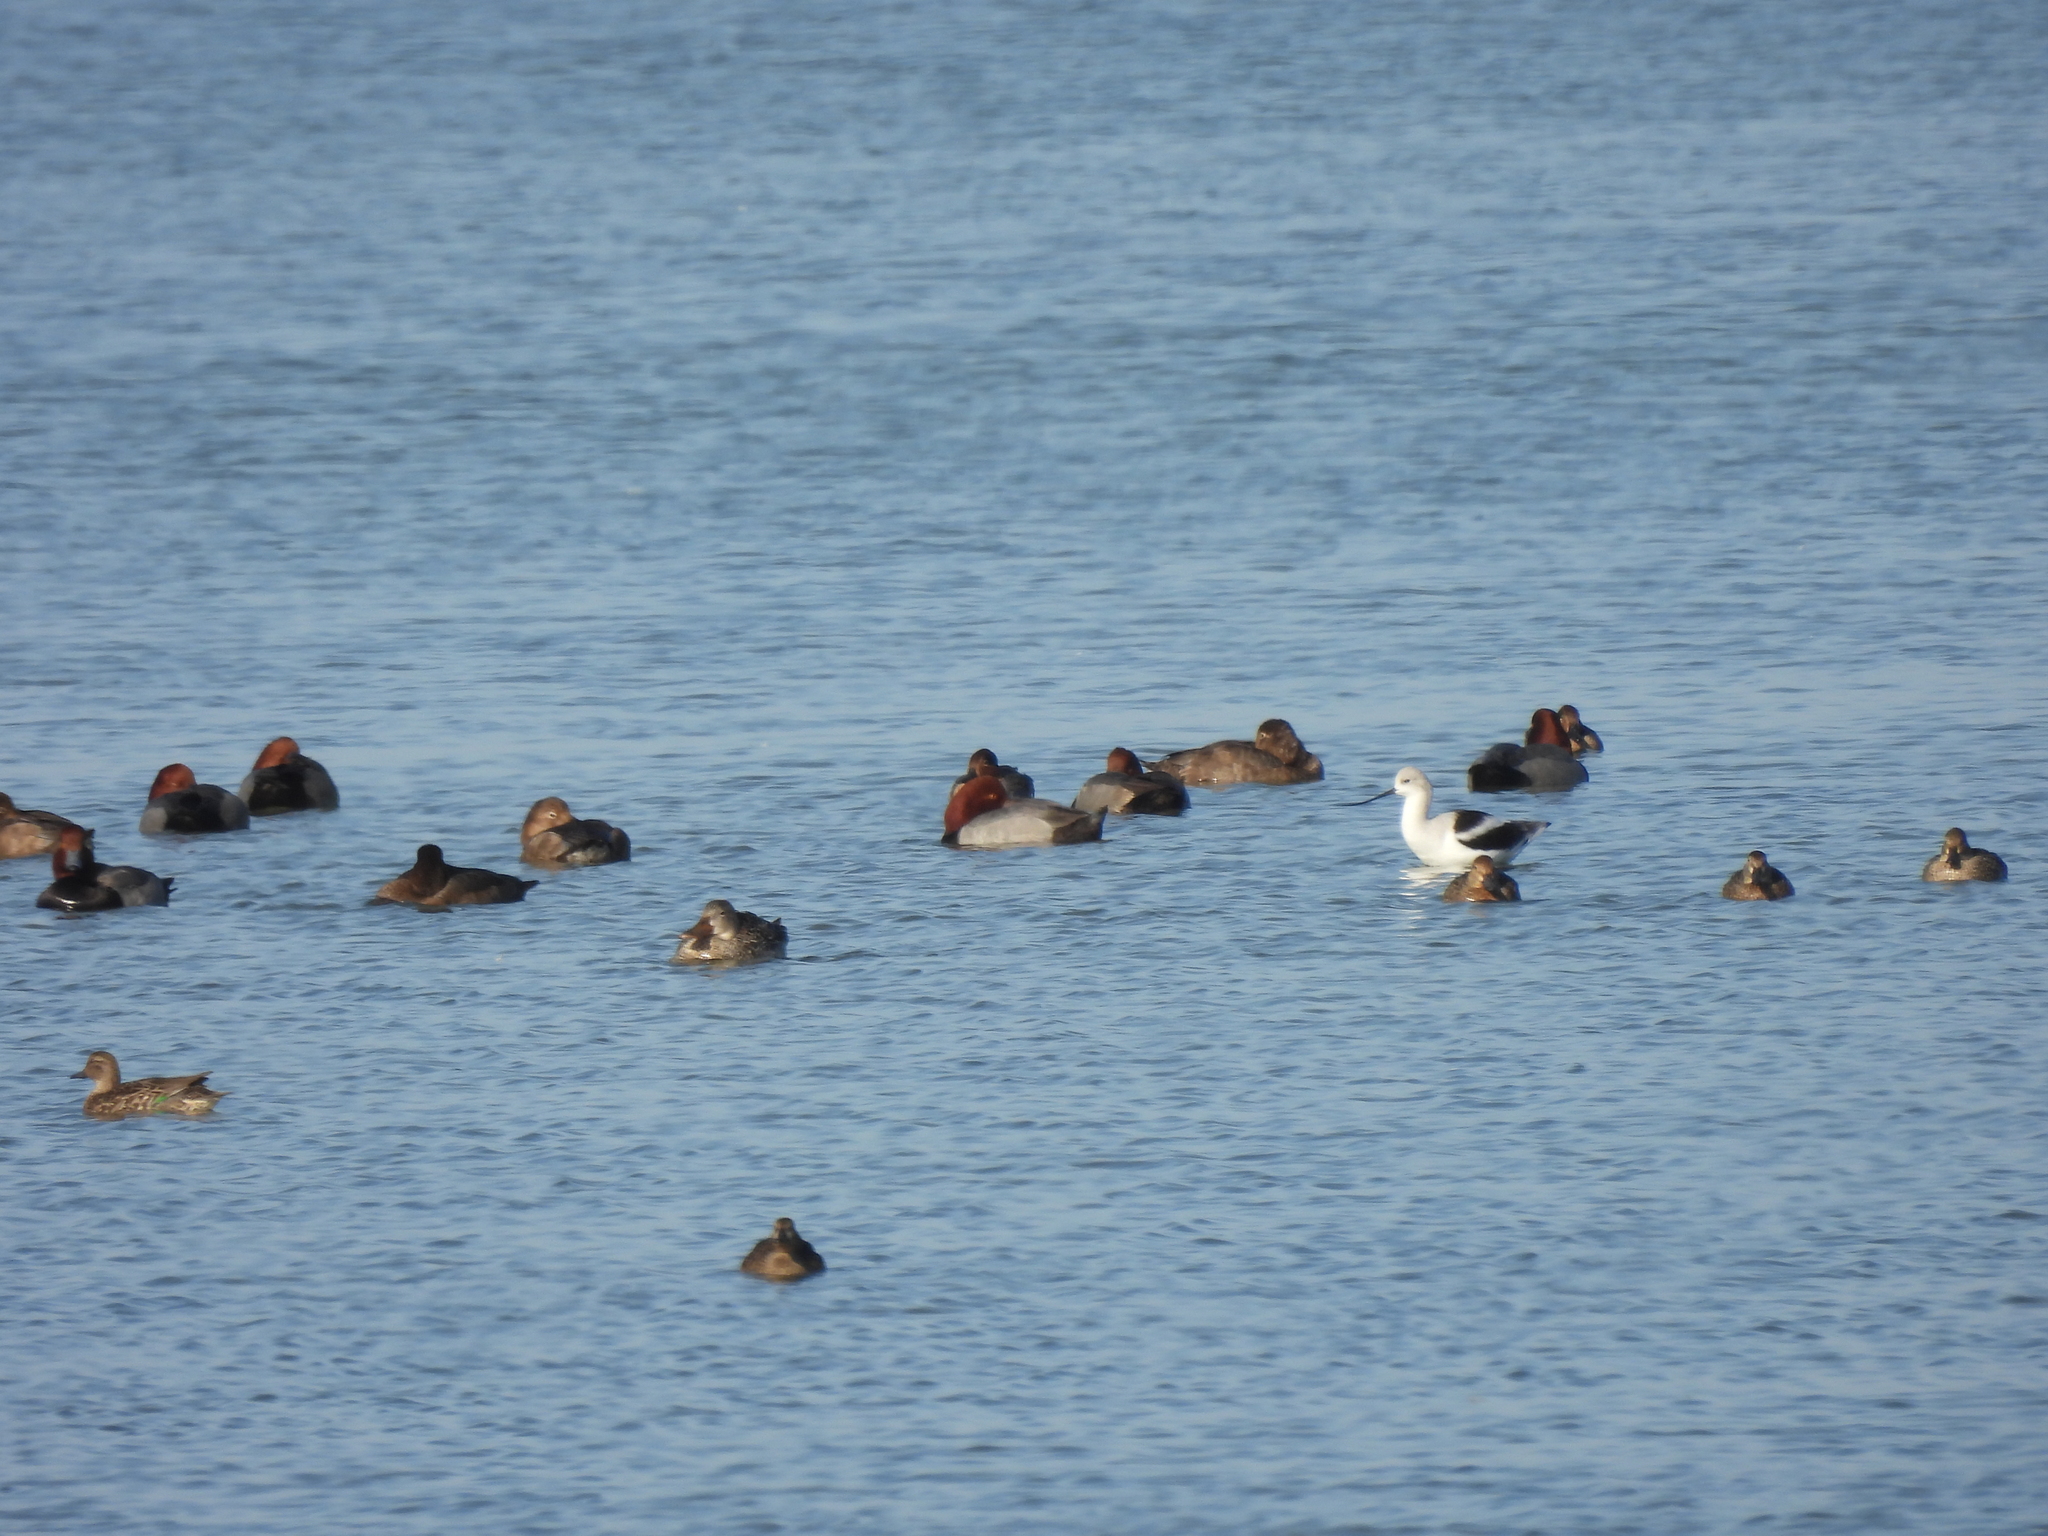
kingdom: Animalia
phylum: Chordata
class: Aves
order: Anseriformes
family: Anatidae
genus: Aythya
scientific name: Aythya americana
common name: Redhead
